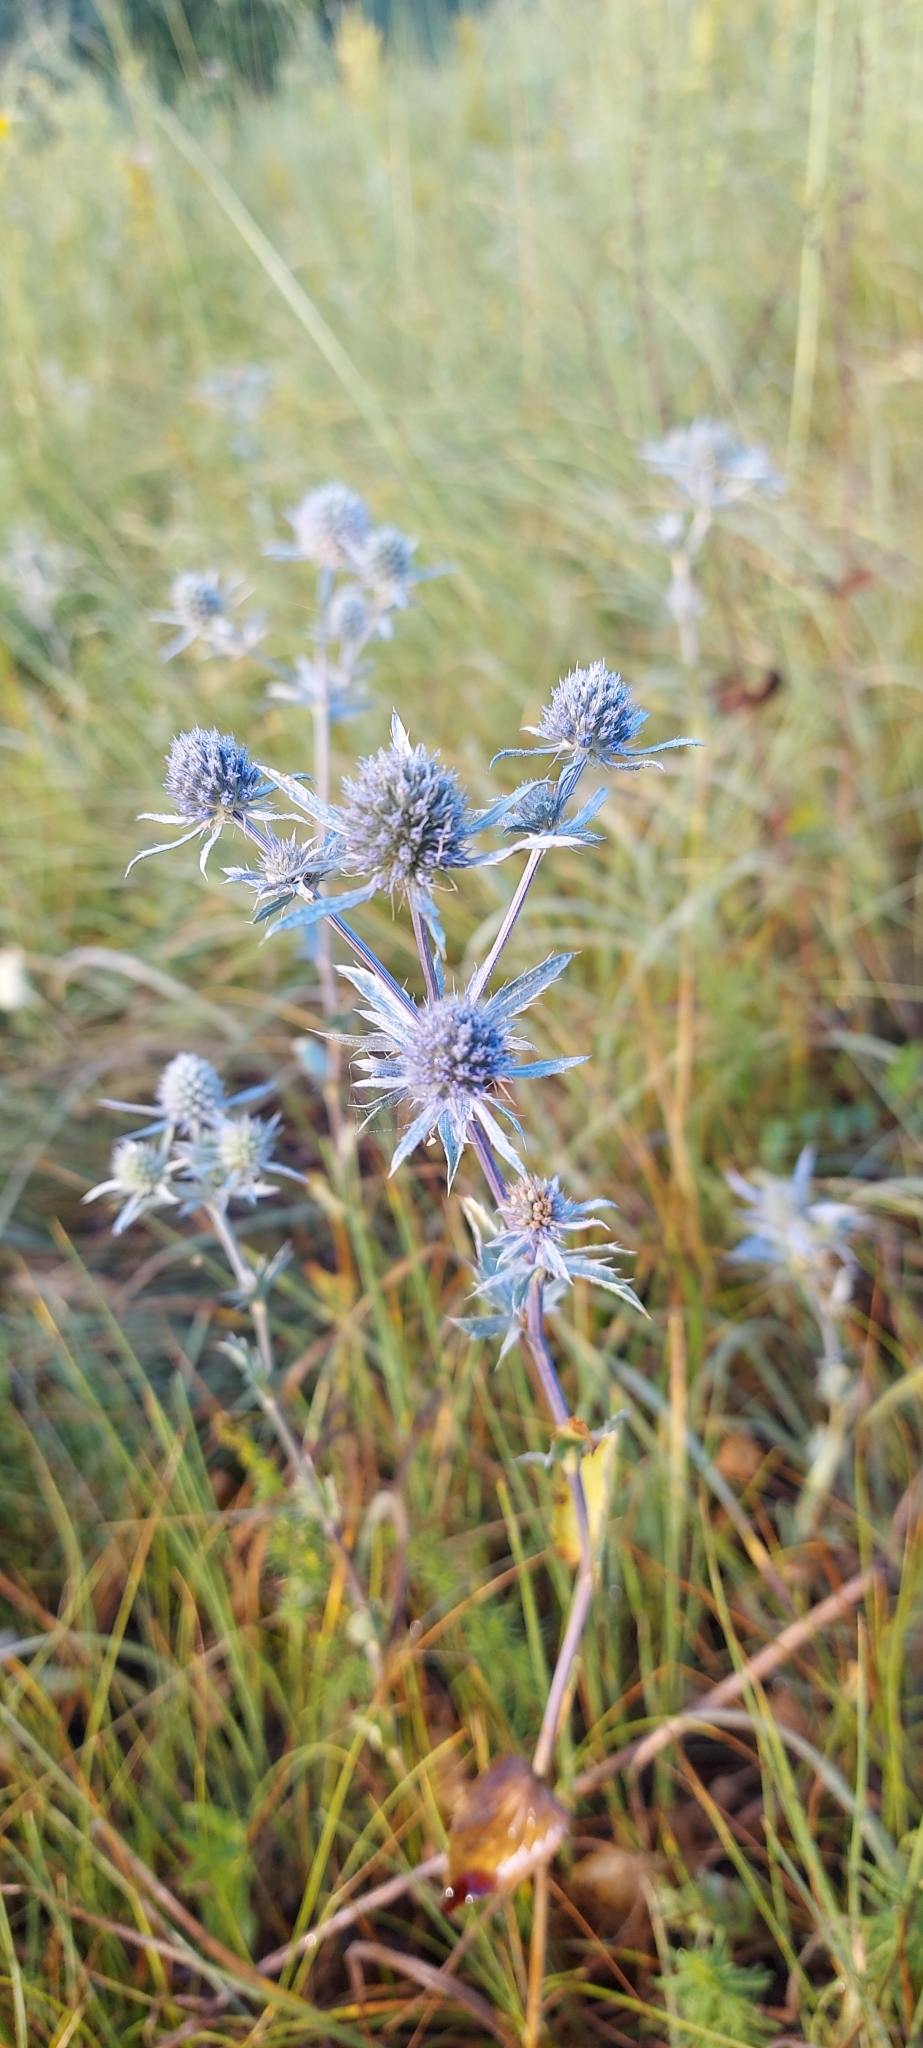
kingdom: Plantae
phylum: Tracheophyta
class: Magnoliopsida
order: Apiales
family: Apiaceae
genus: Eryngium
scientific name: Eryngium planum
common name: Blue eryngo
